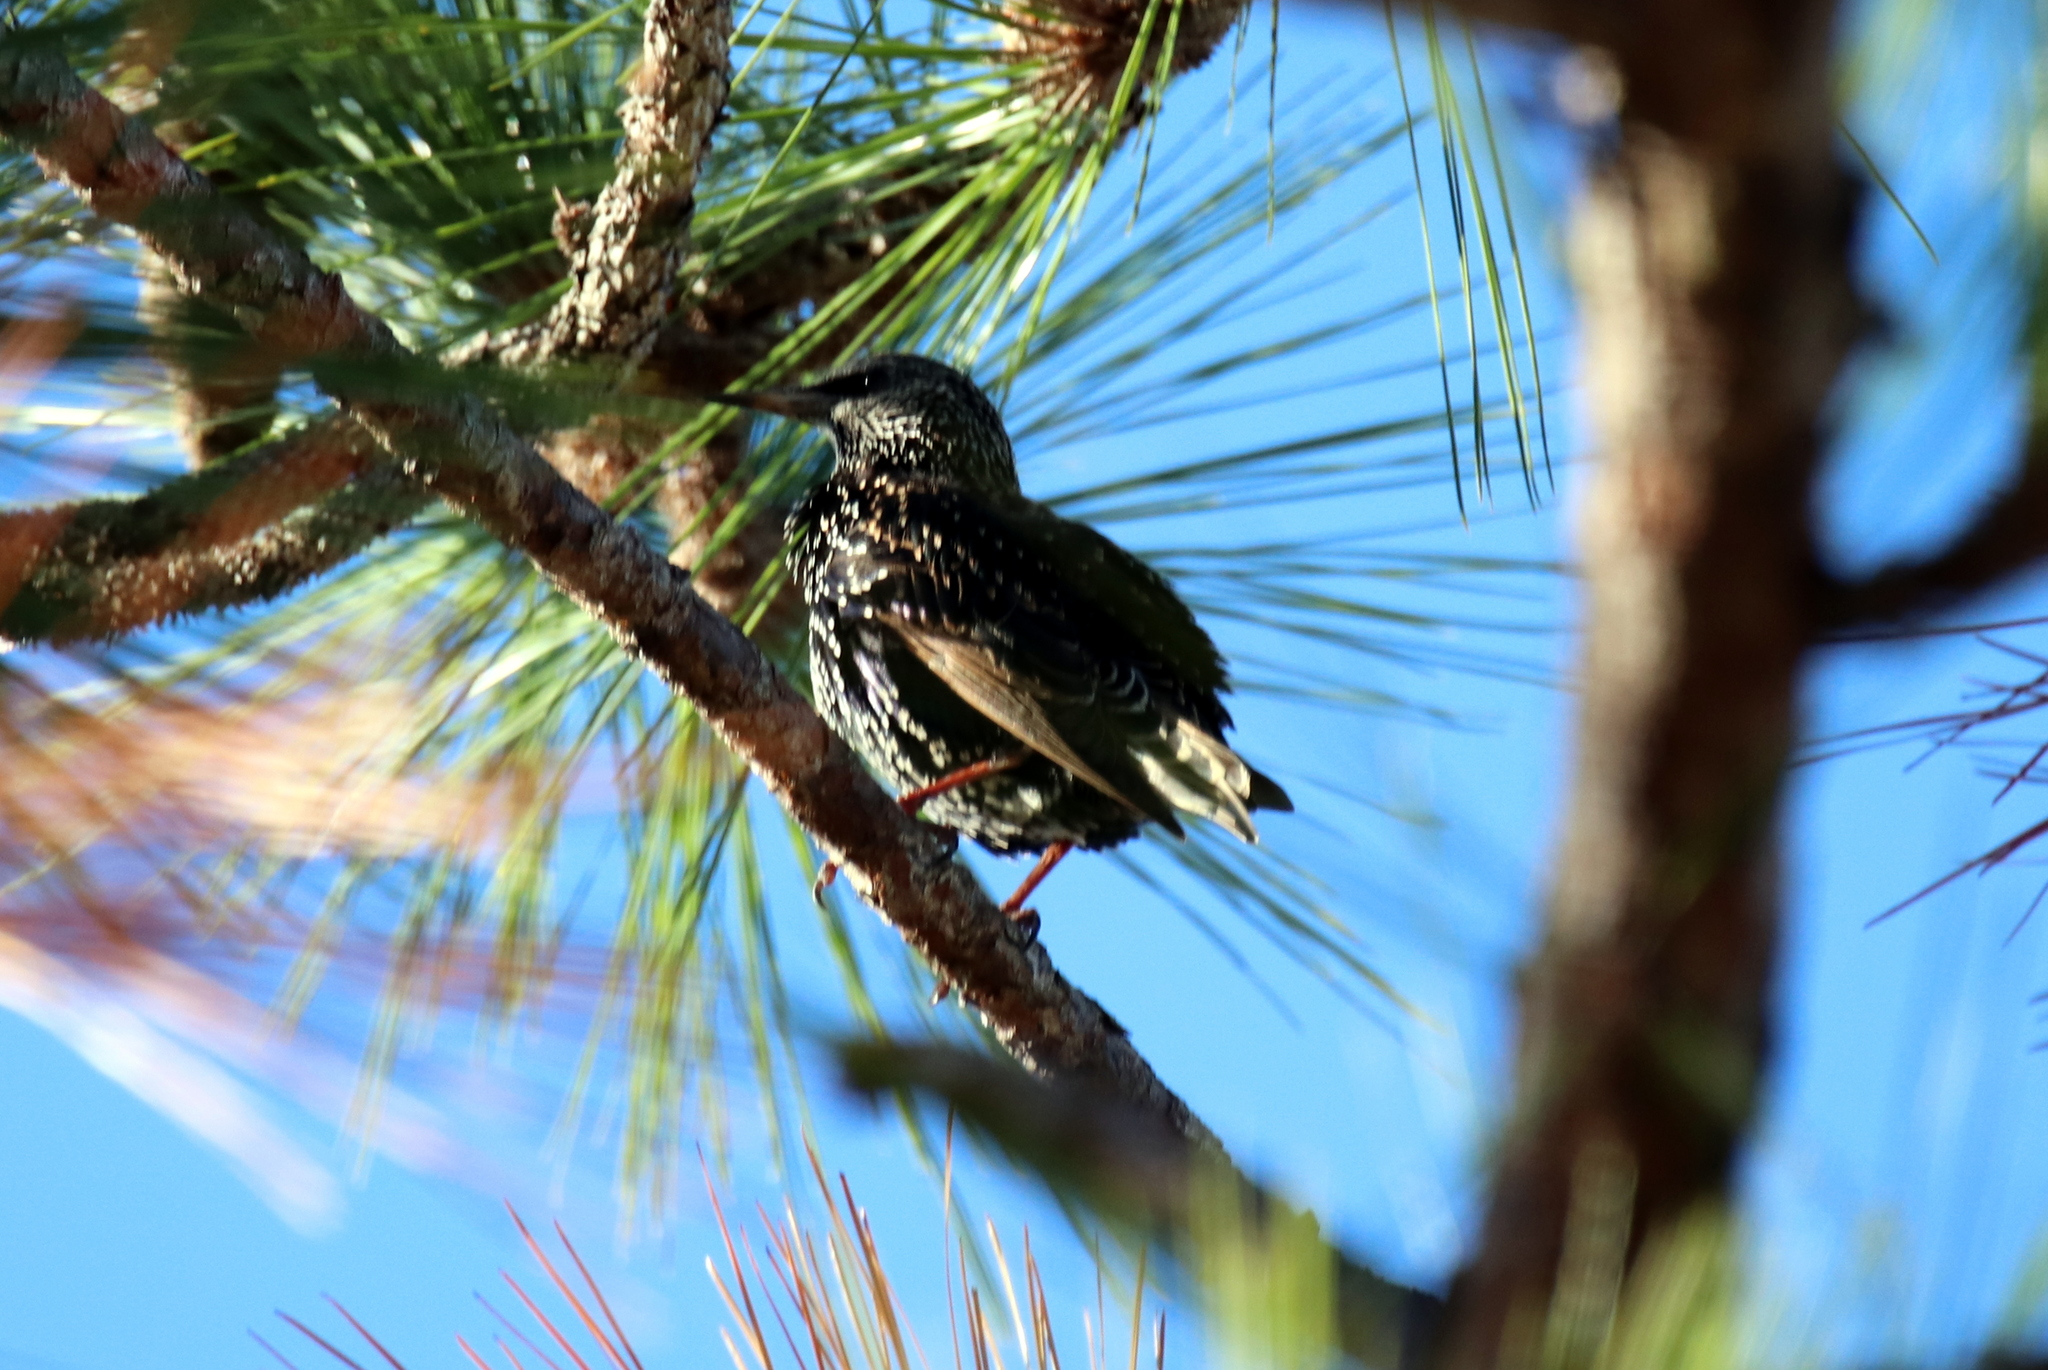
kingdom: Animalia
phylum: Chordata
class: Aves
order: Passeriformes
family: Sturnidae
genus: Sturnus
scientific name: Sturnus vulgaris
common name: Common starling
